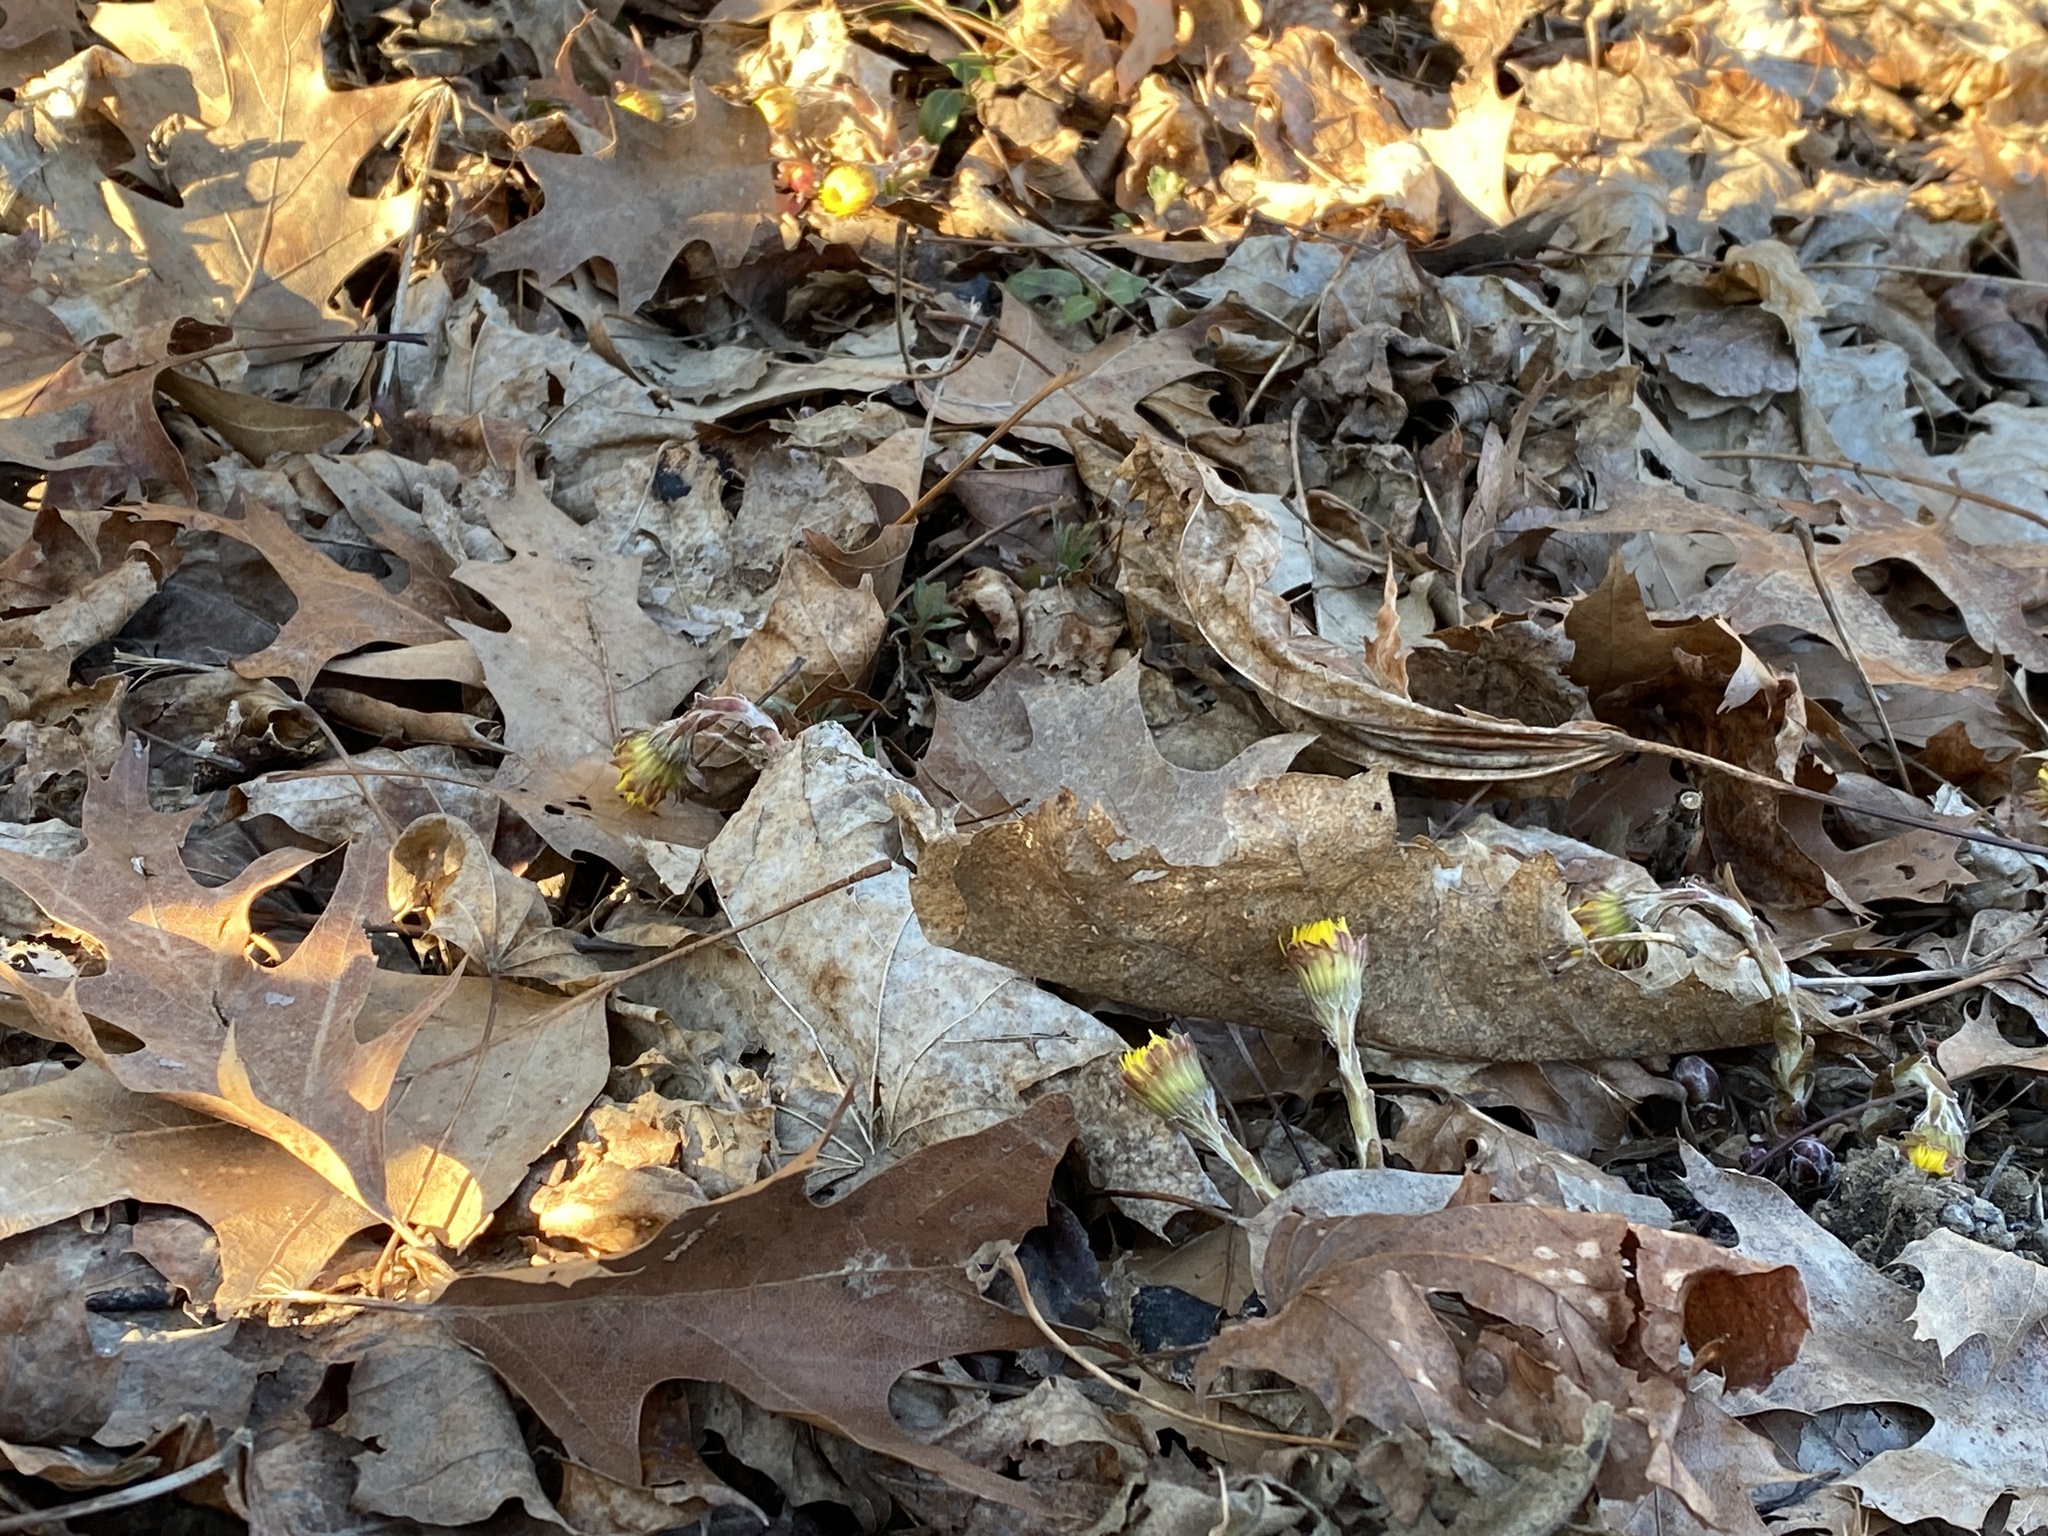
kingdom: Plantae
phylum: Tracheophyta
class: Magnoliopsida
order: Asterales
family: Asteraceae
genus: Tussilago
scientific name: Tussilago farfara
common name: Coltsfoot
